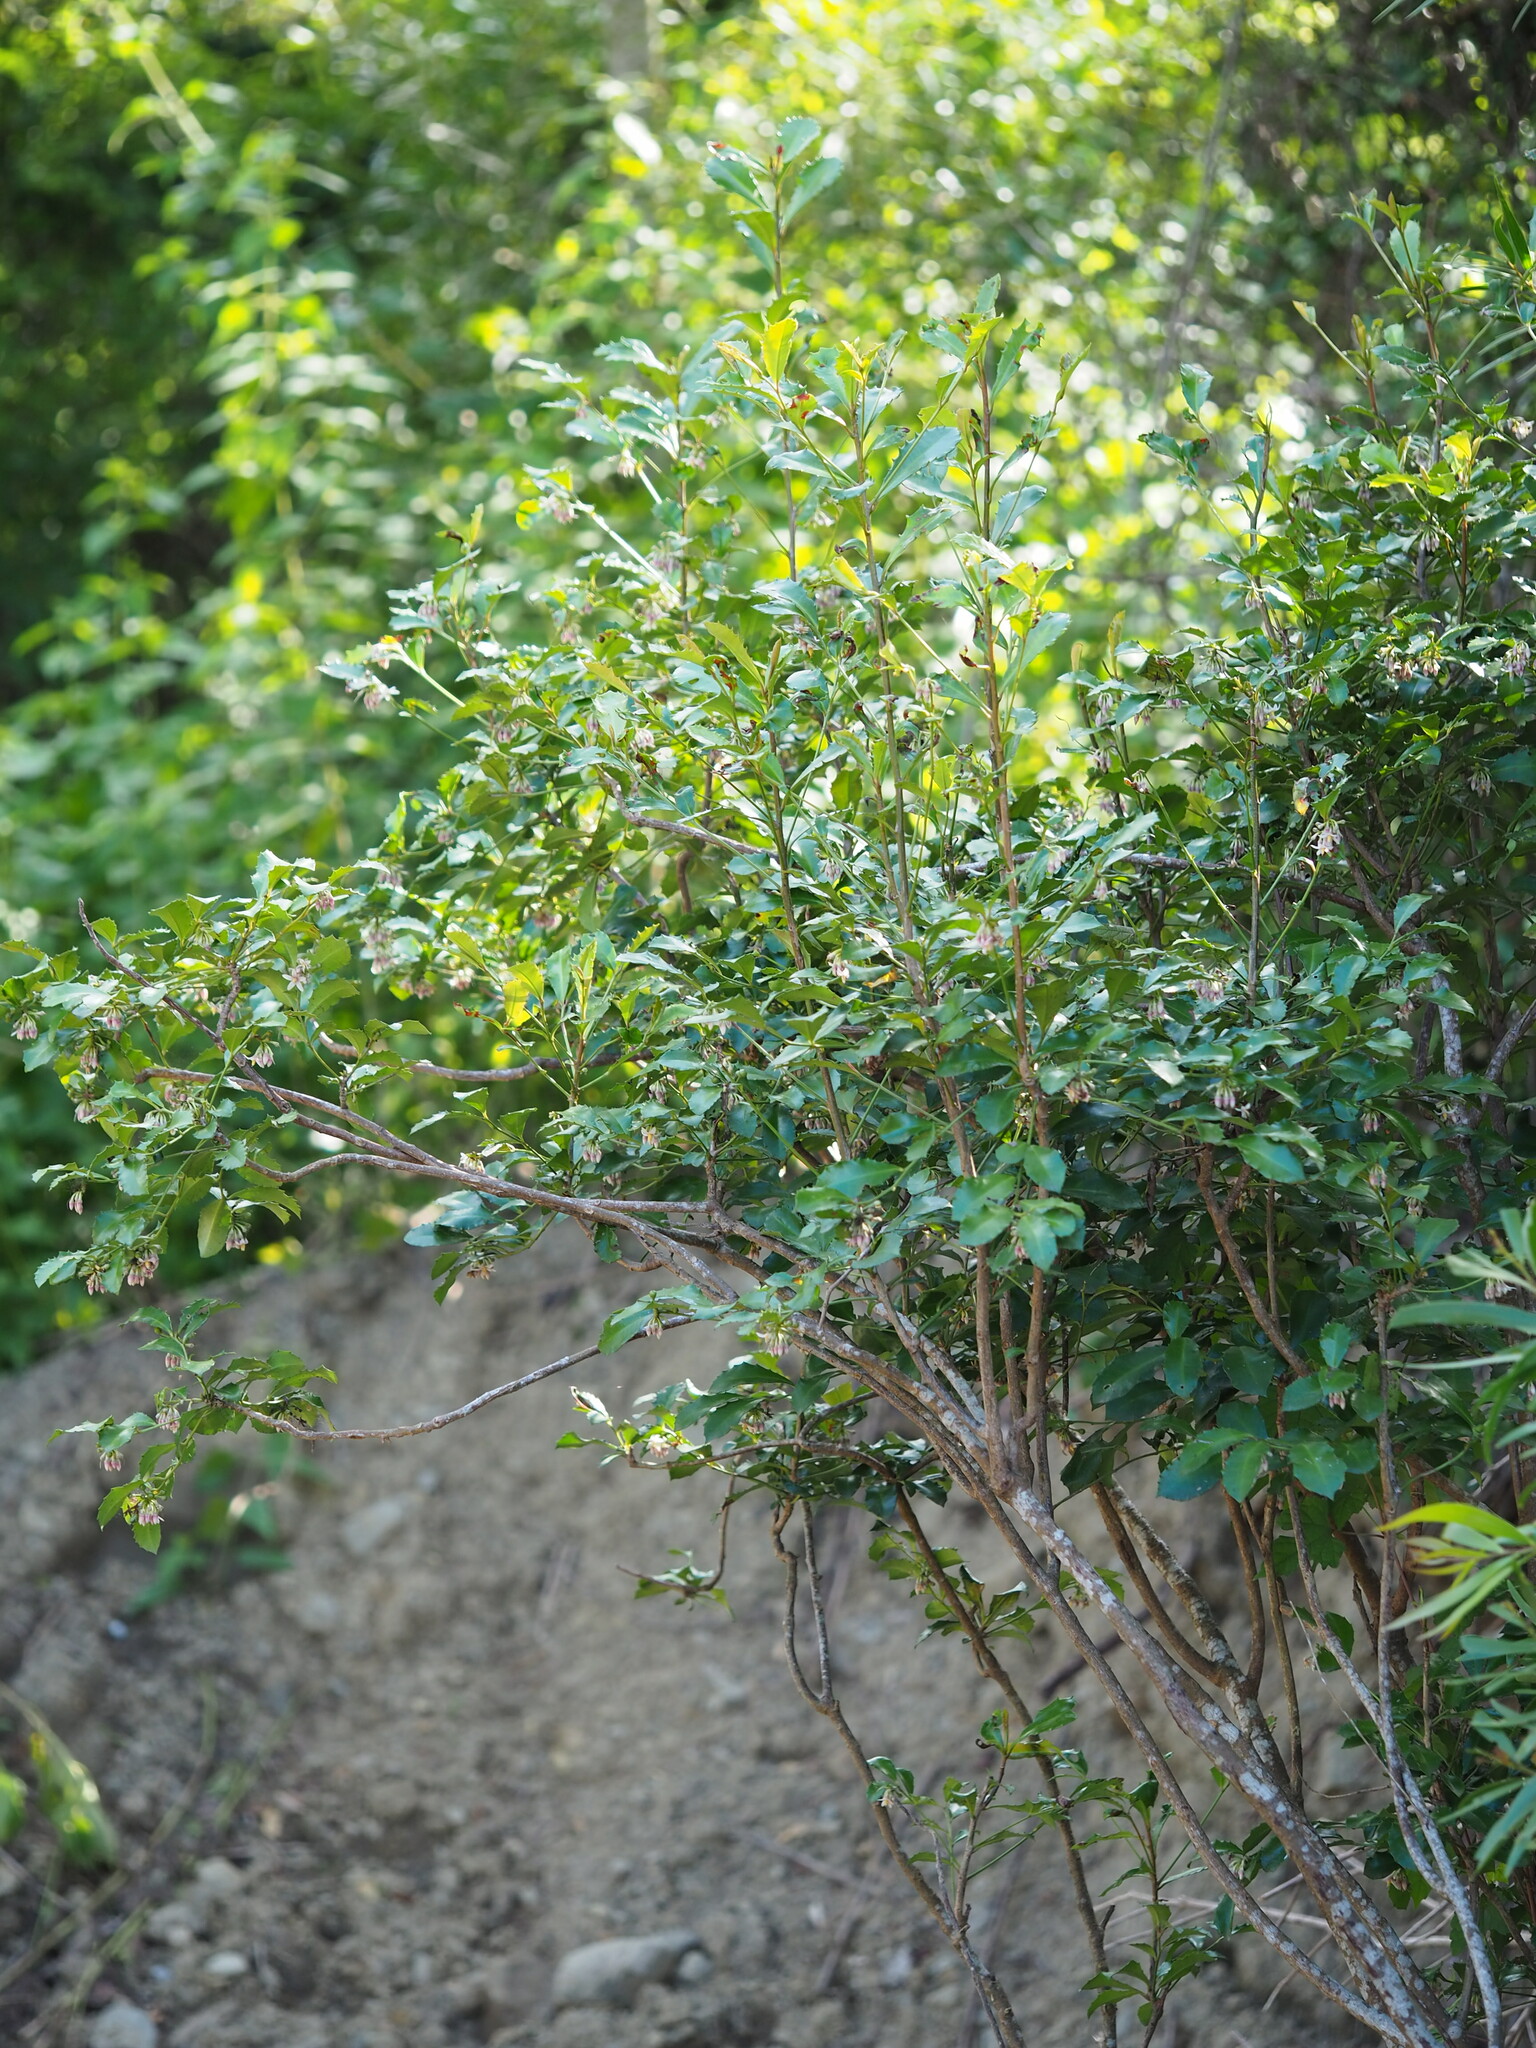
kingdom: Plantae
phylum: Tracheophyta
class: Magnoliopsida
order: Ericales
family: Primulaceae
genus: Ardisia
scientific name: Ardisia cornudentata
